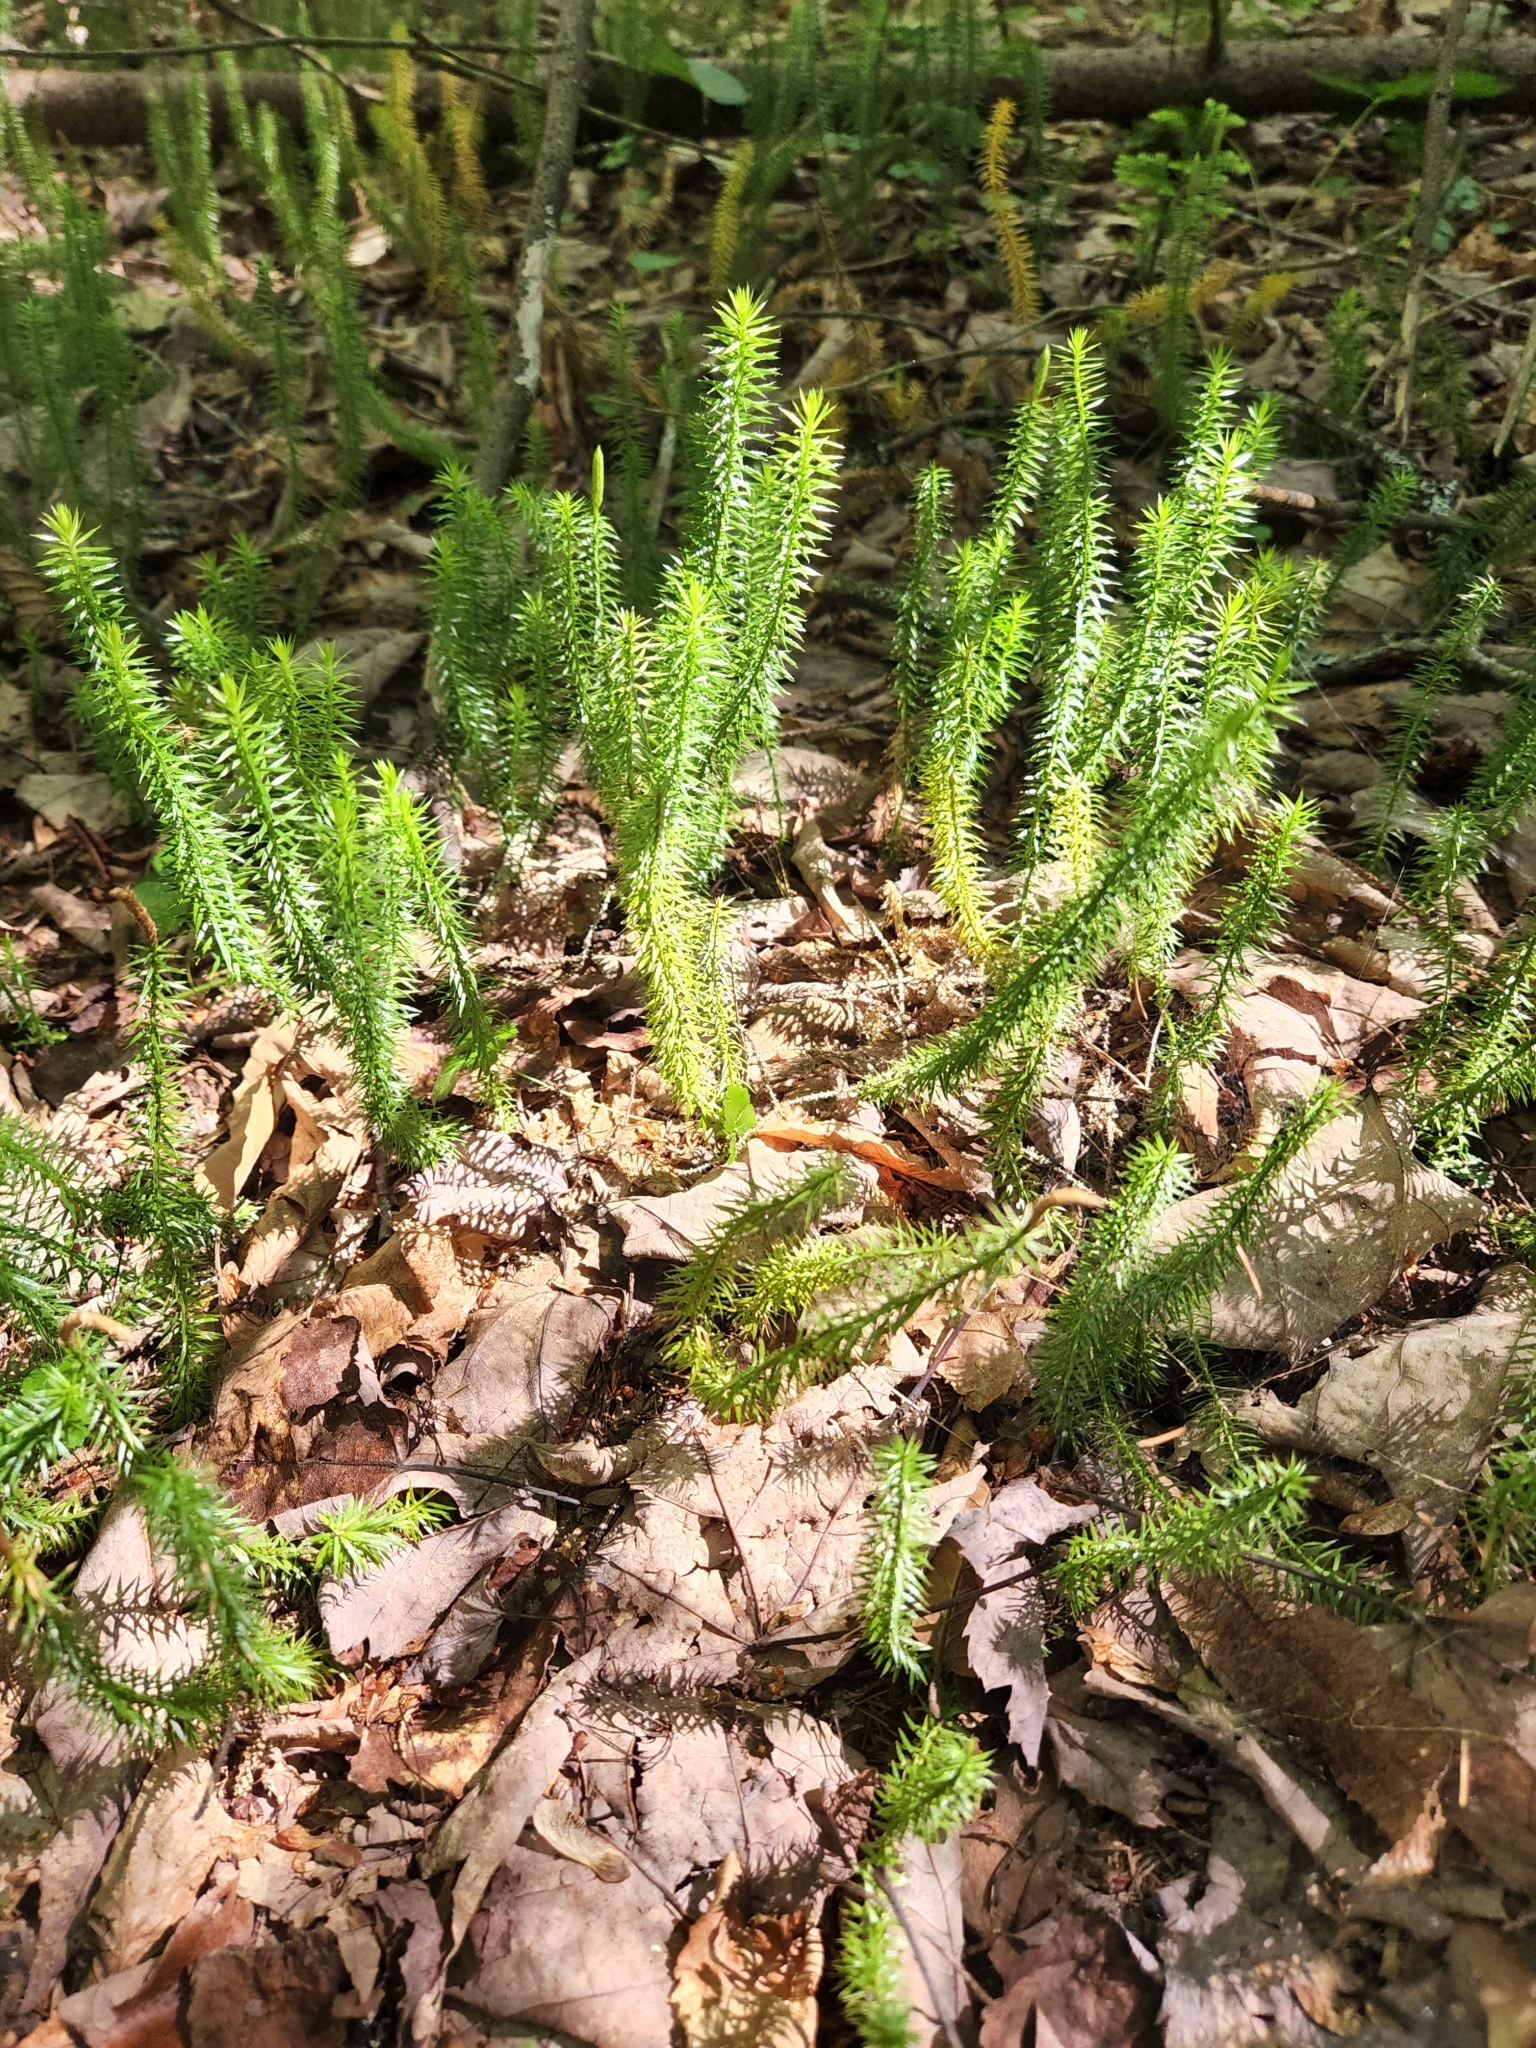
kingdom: Plantae
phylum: Tracheophyta
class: Lycopodiopsida
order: Lycopodiales
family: Lycopodiaceae
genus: Spinulum
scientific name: Spinulum annotinum
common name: Interrupted club-moss
